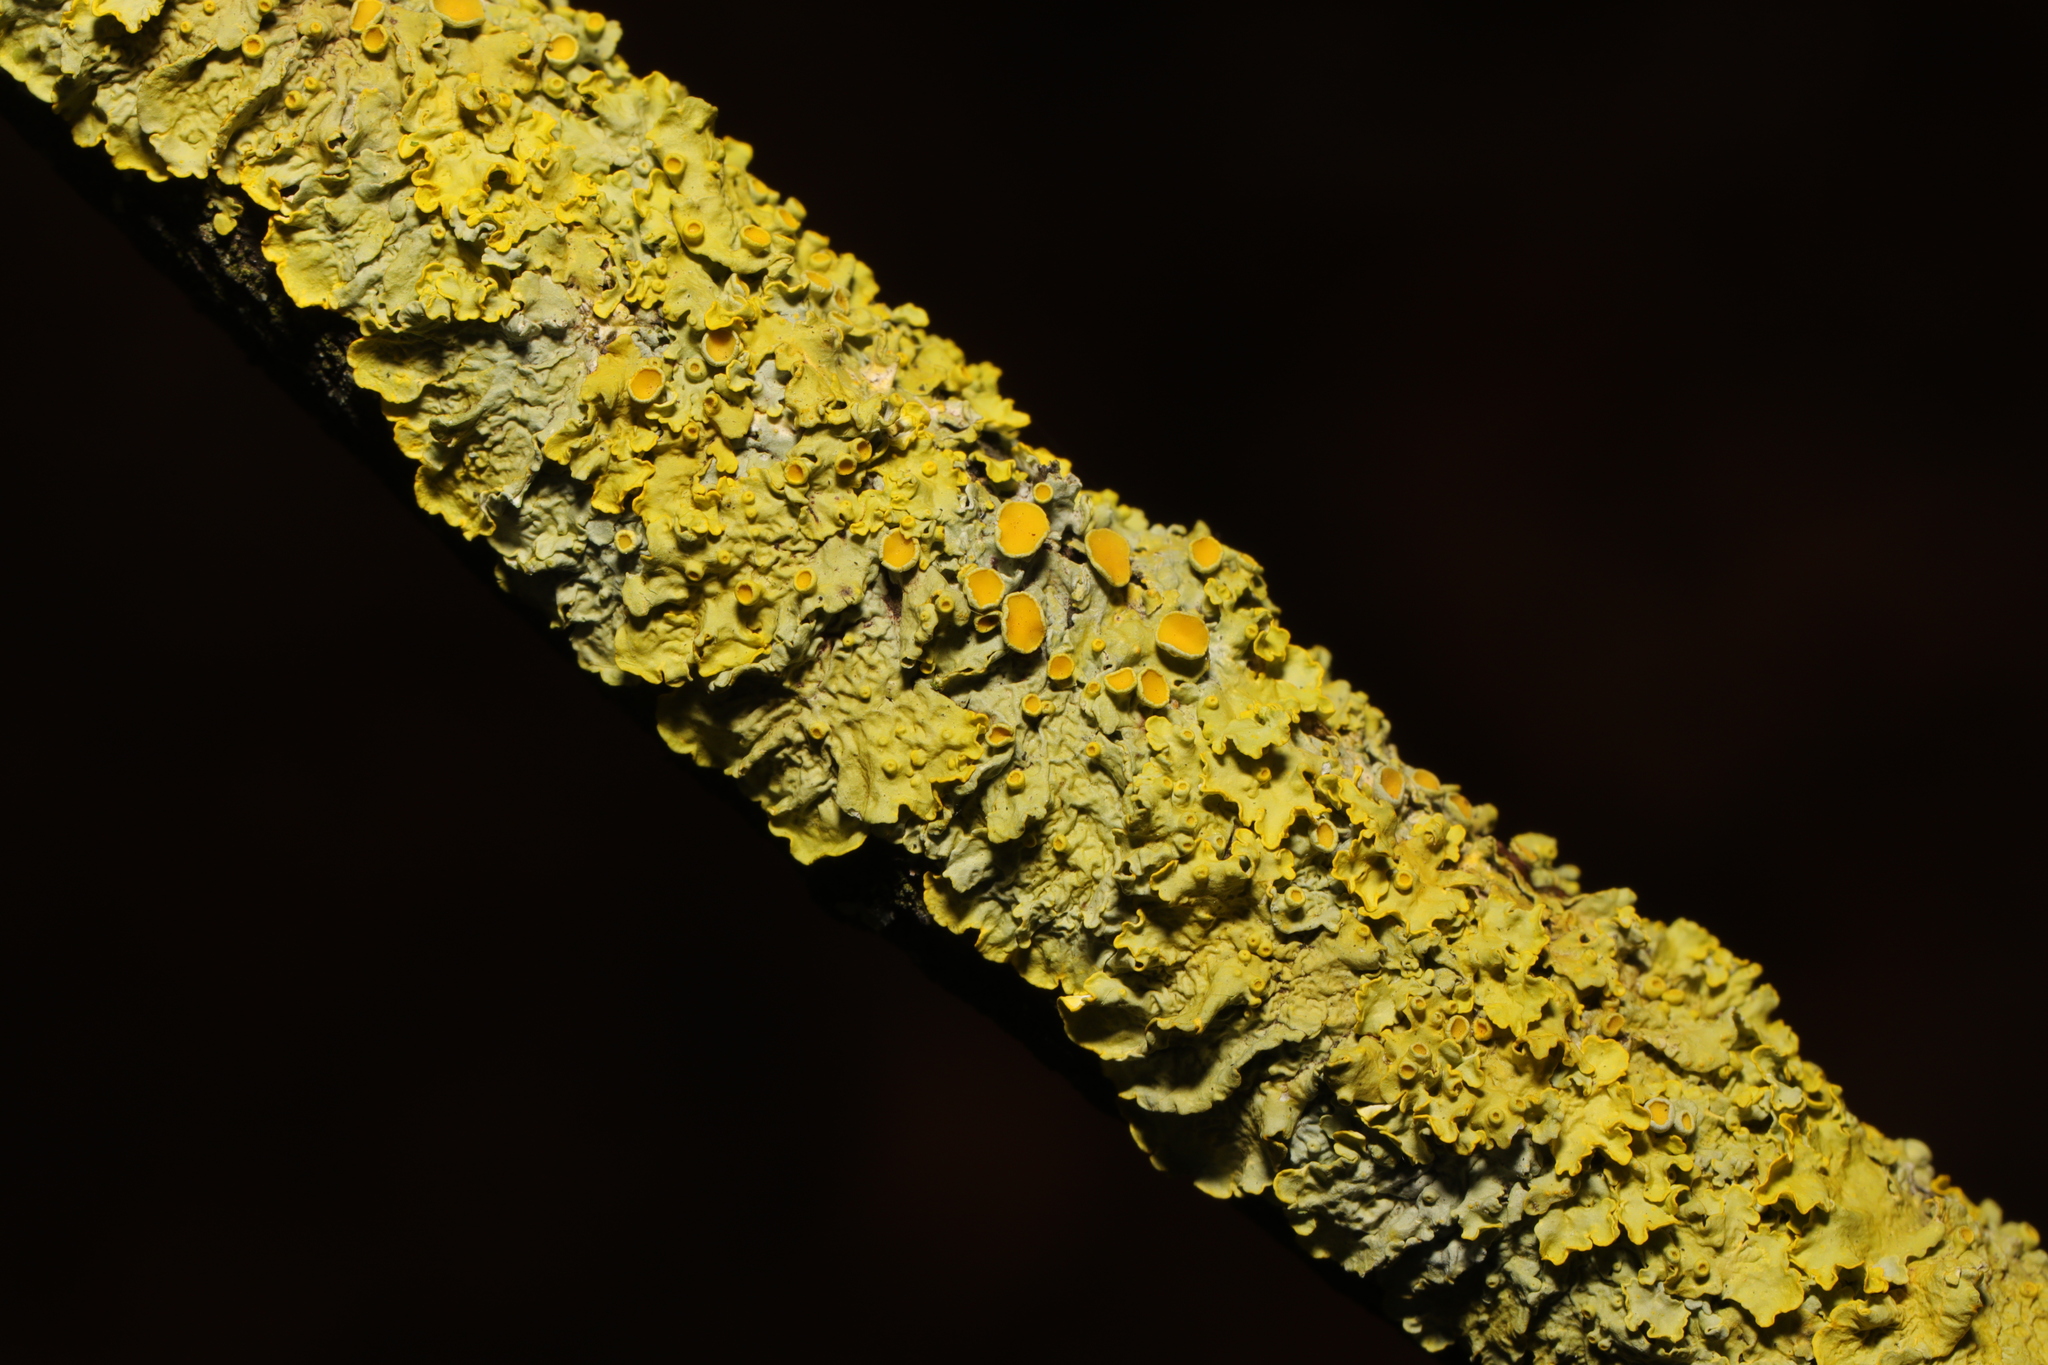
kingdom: Fungi
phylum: Ascomycota
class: Lecanoromycetes
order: Teloschistales
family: Teloschistaceae
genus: Xanthoria
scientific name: Xanthoria parietina
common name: Common orange lichen
